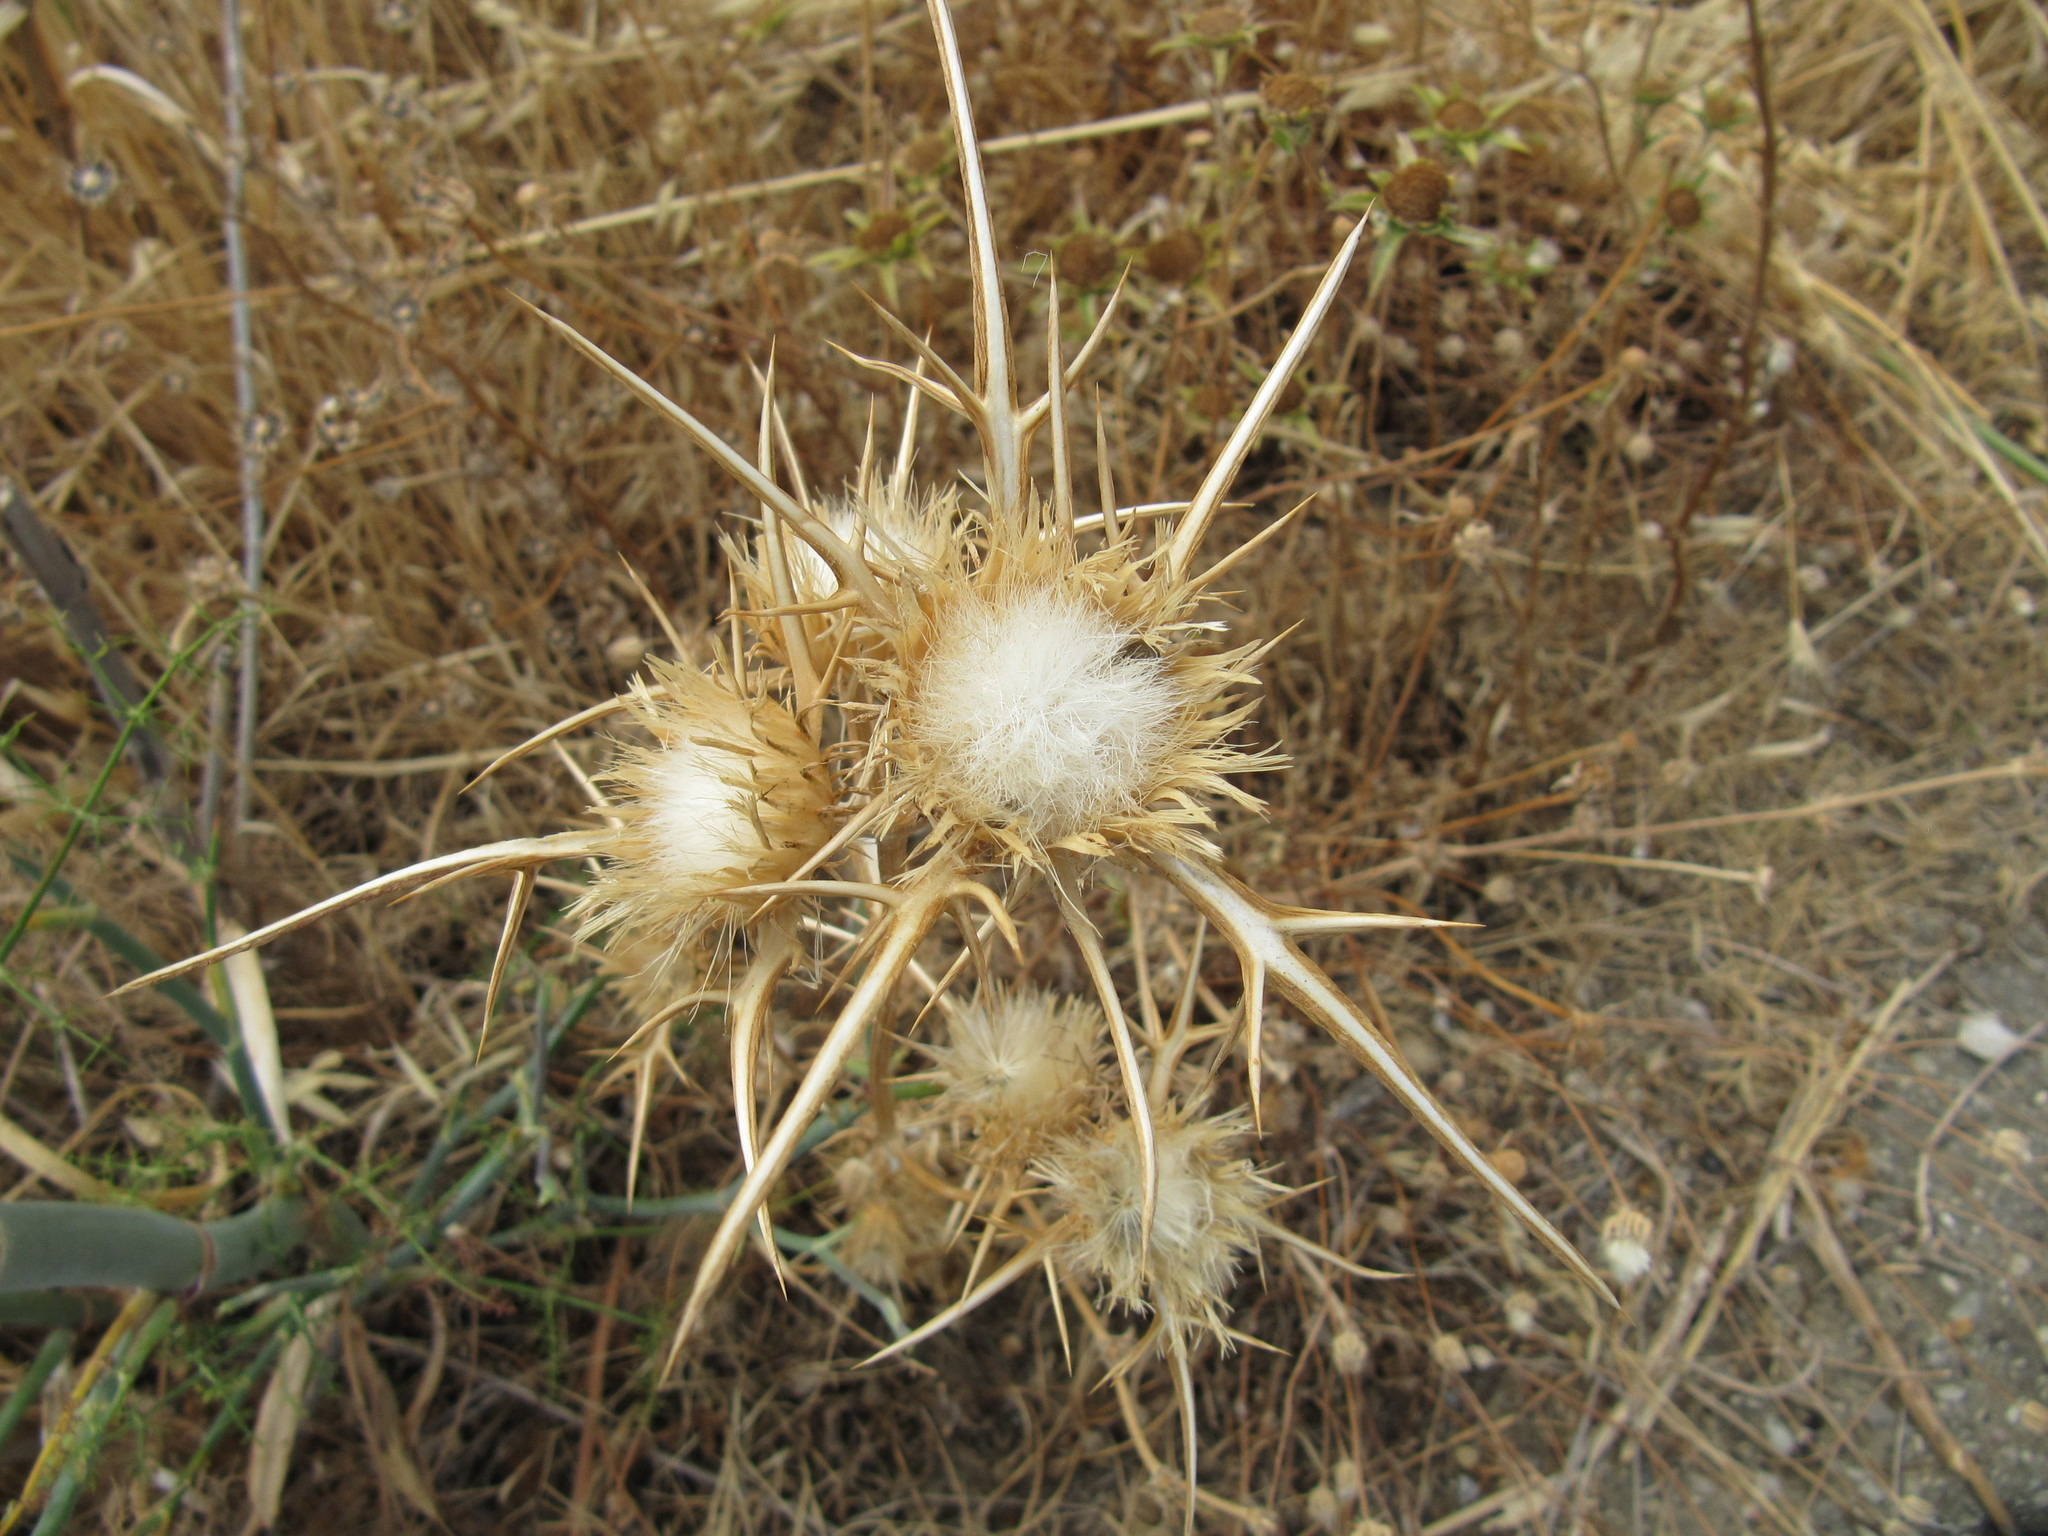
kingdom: Plantae
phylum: Tracheophyta
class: Magnoliopsida
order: Asterales
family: Asteraceae
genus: Notobasis
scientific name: Notobasis syriaca
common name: Syrian thistle
